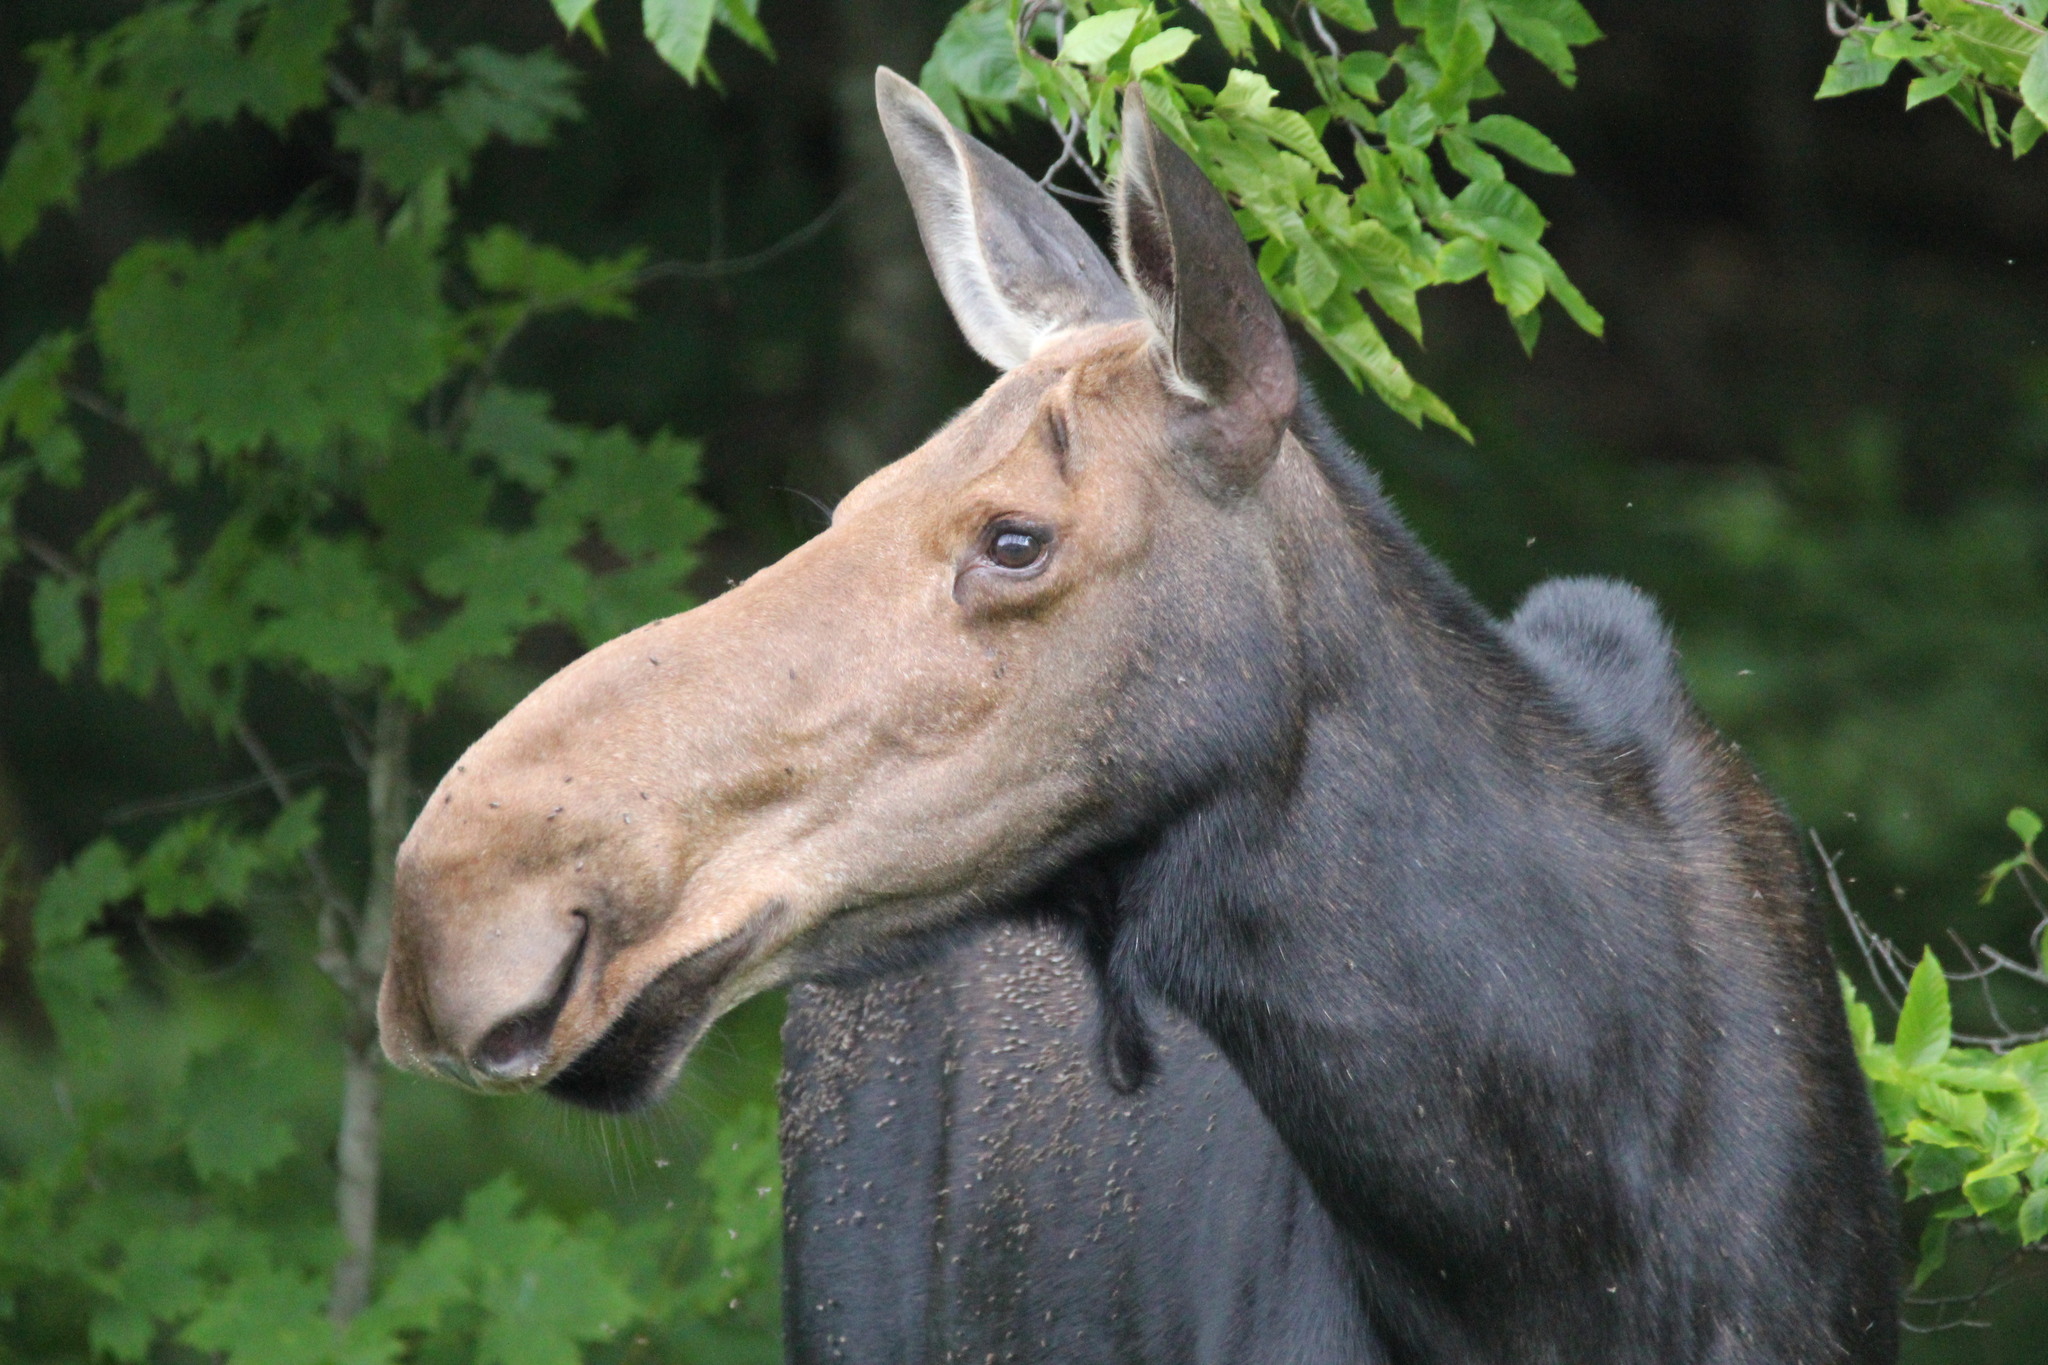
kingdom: Animalia
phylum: Chordata
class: Mammalia
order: Artiodactyla
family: Cervidae
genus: Alces
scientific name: Alces alces
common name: Moose
